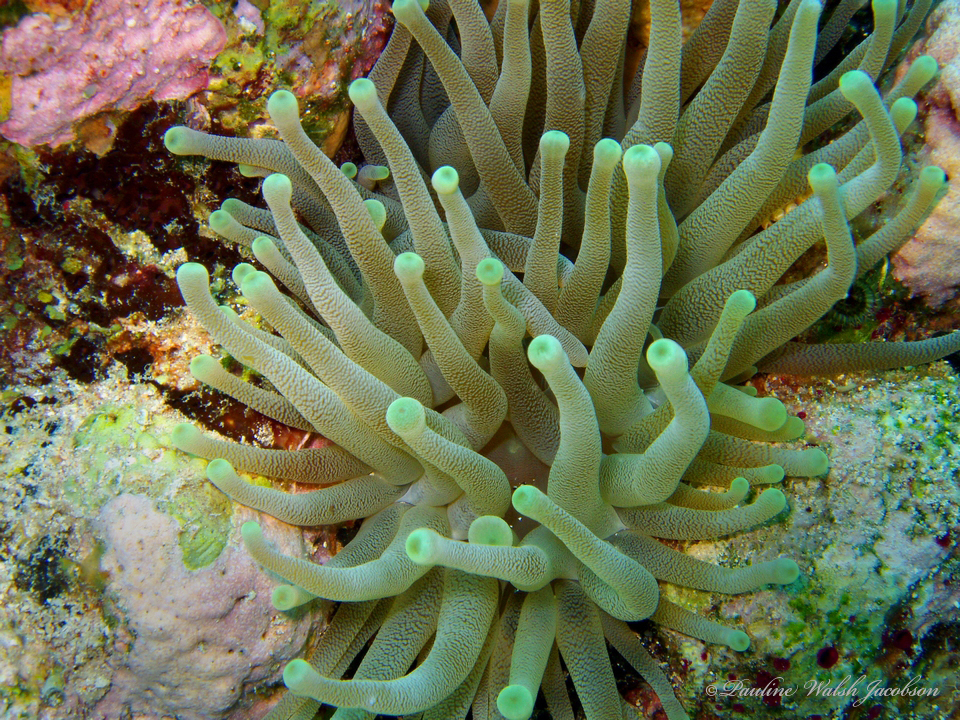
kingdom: Animalia
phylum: Cnidaria
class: Anthozoa
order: Actiniaria
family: Actiniidae
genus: Condylactis
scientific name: Condylactis gigantea
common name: Giant caribbean anemone
